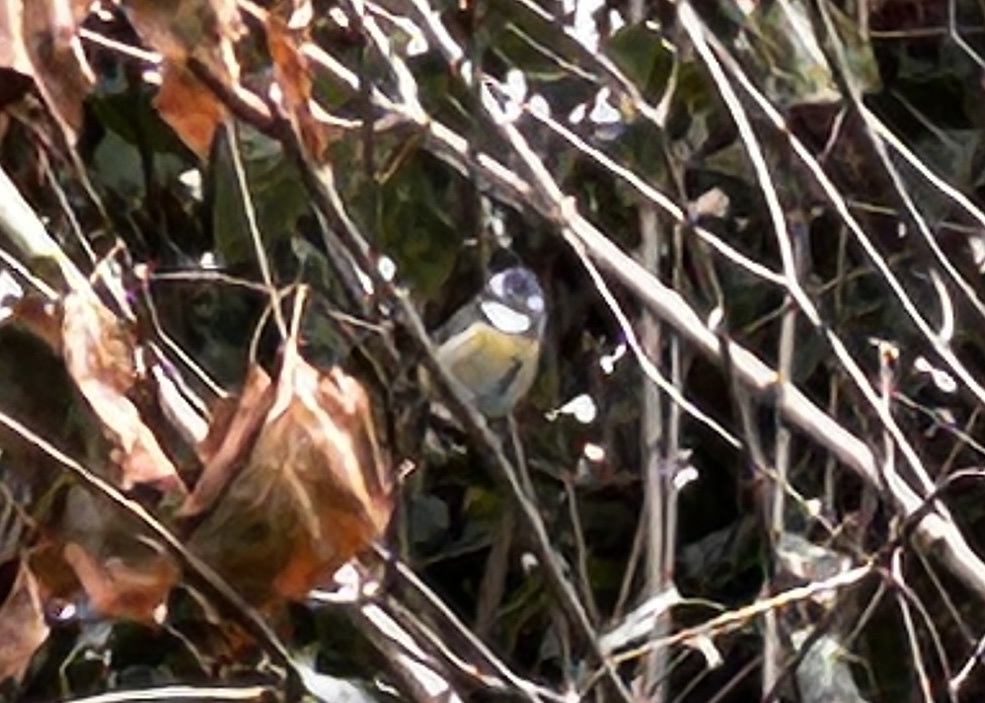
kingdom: Animalia
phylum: Chordata
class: Aves
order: Passeriformes
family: Paridae
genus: Cyanistes
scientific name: Cyanistes caeruleus
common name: Eurasian blue tit
